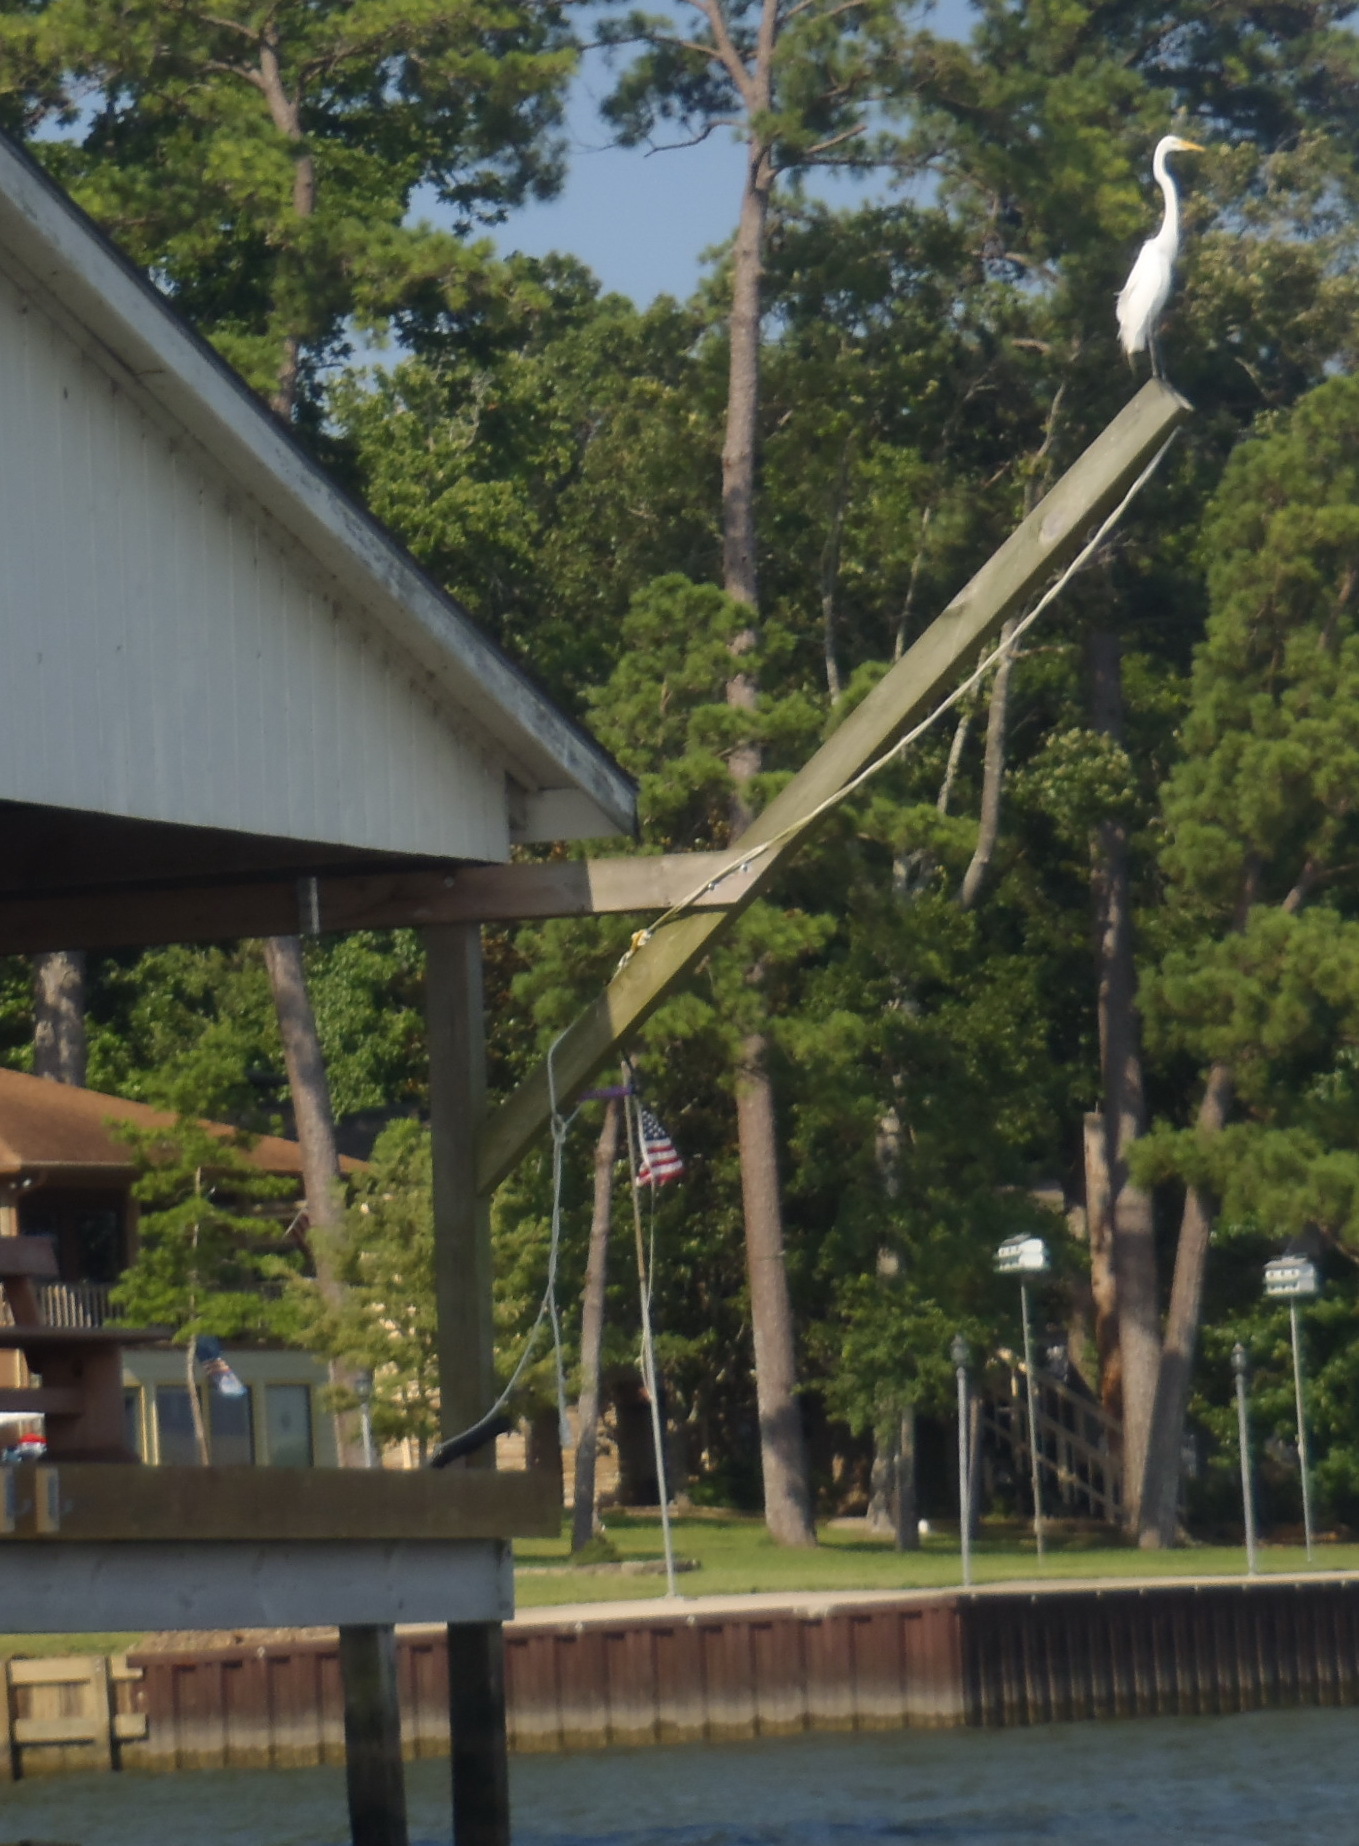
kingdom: Animalia
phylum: Chordata
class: Aves
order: Pelecaniformes
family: Ardeidae
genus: Ardea
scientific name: Ardea alba
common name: Great egret
